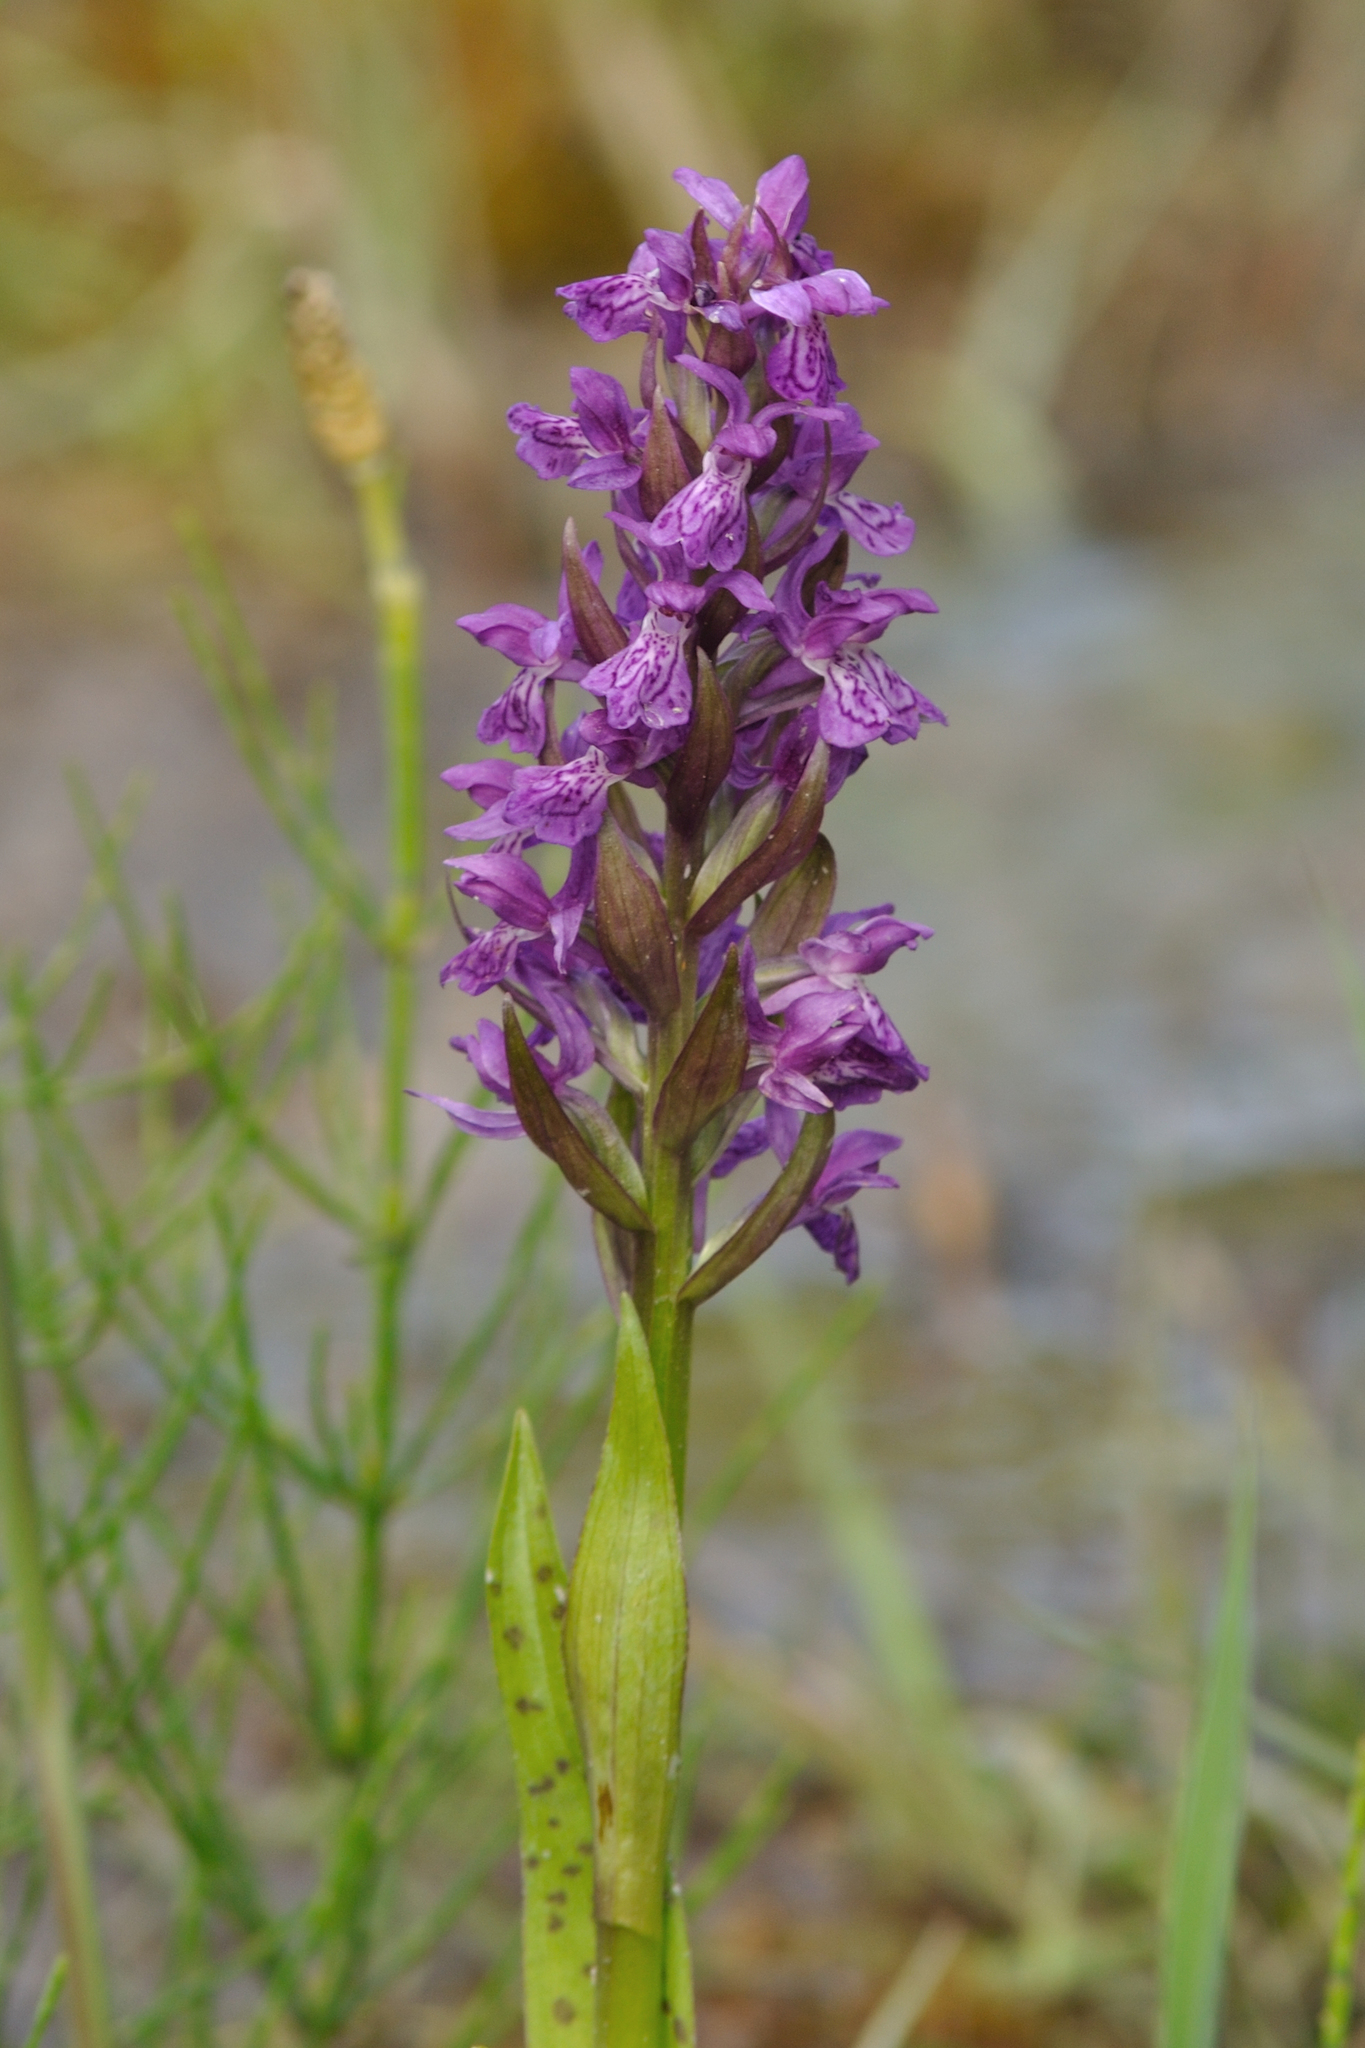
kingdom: Plantae
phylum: Tracheophyta
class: Liliopsida
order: Asparagales
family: Orchidaceae
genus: Dactylorhiza
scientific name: Dactylorhiza majalis
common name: Marsh orchid
